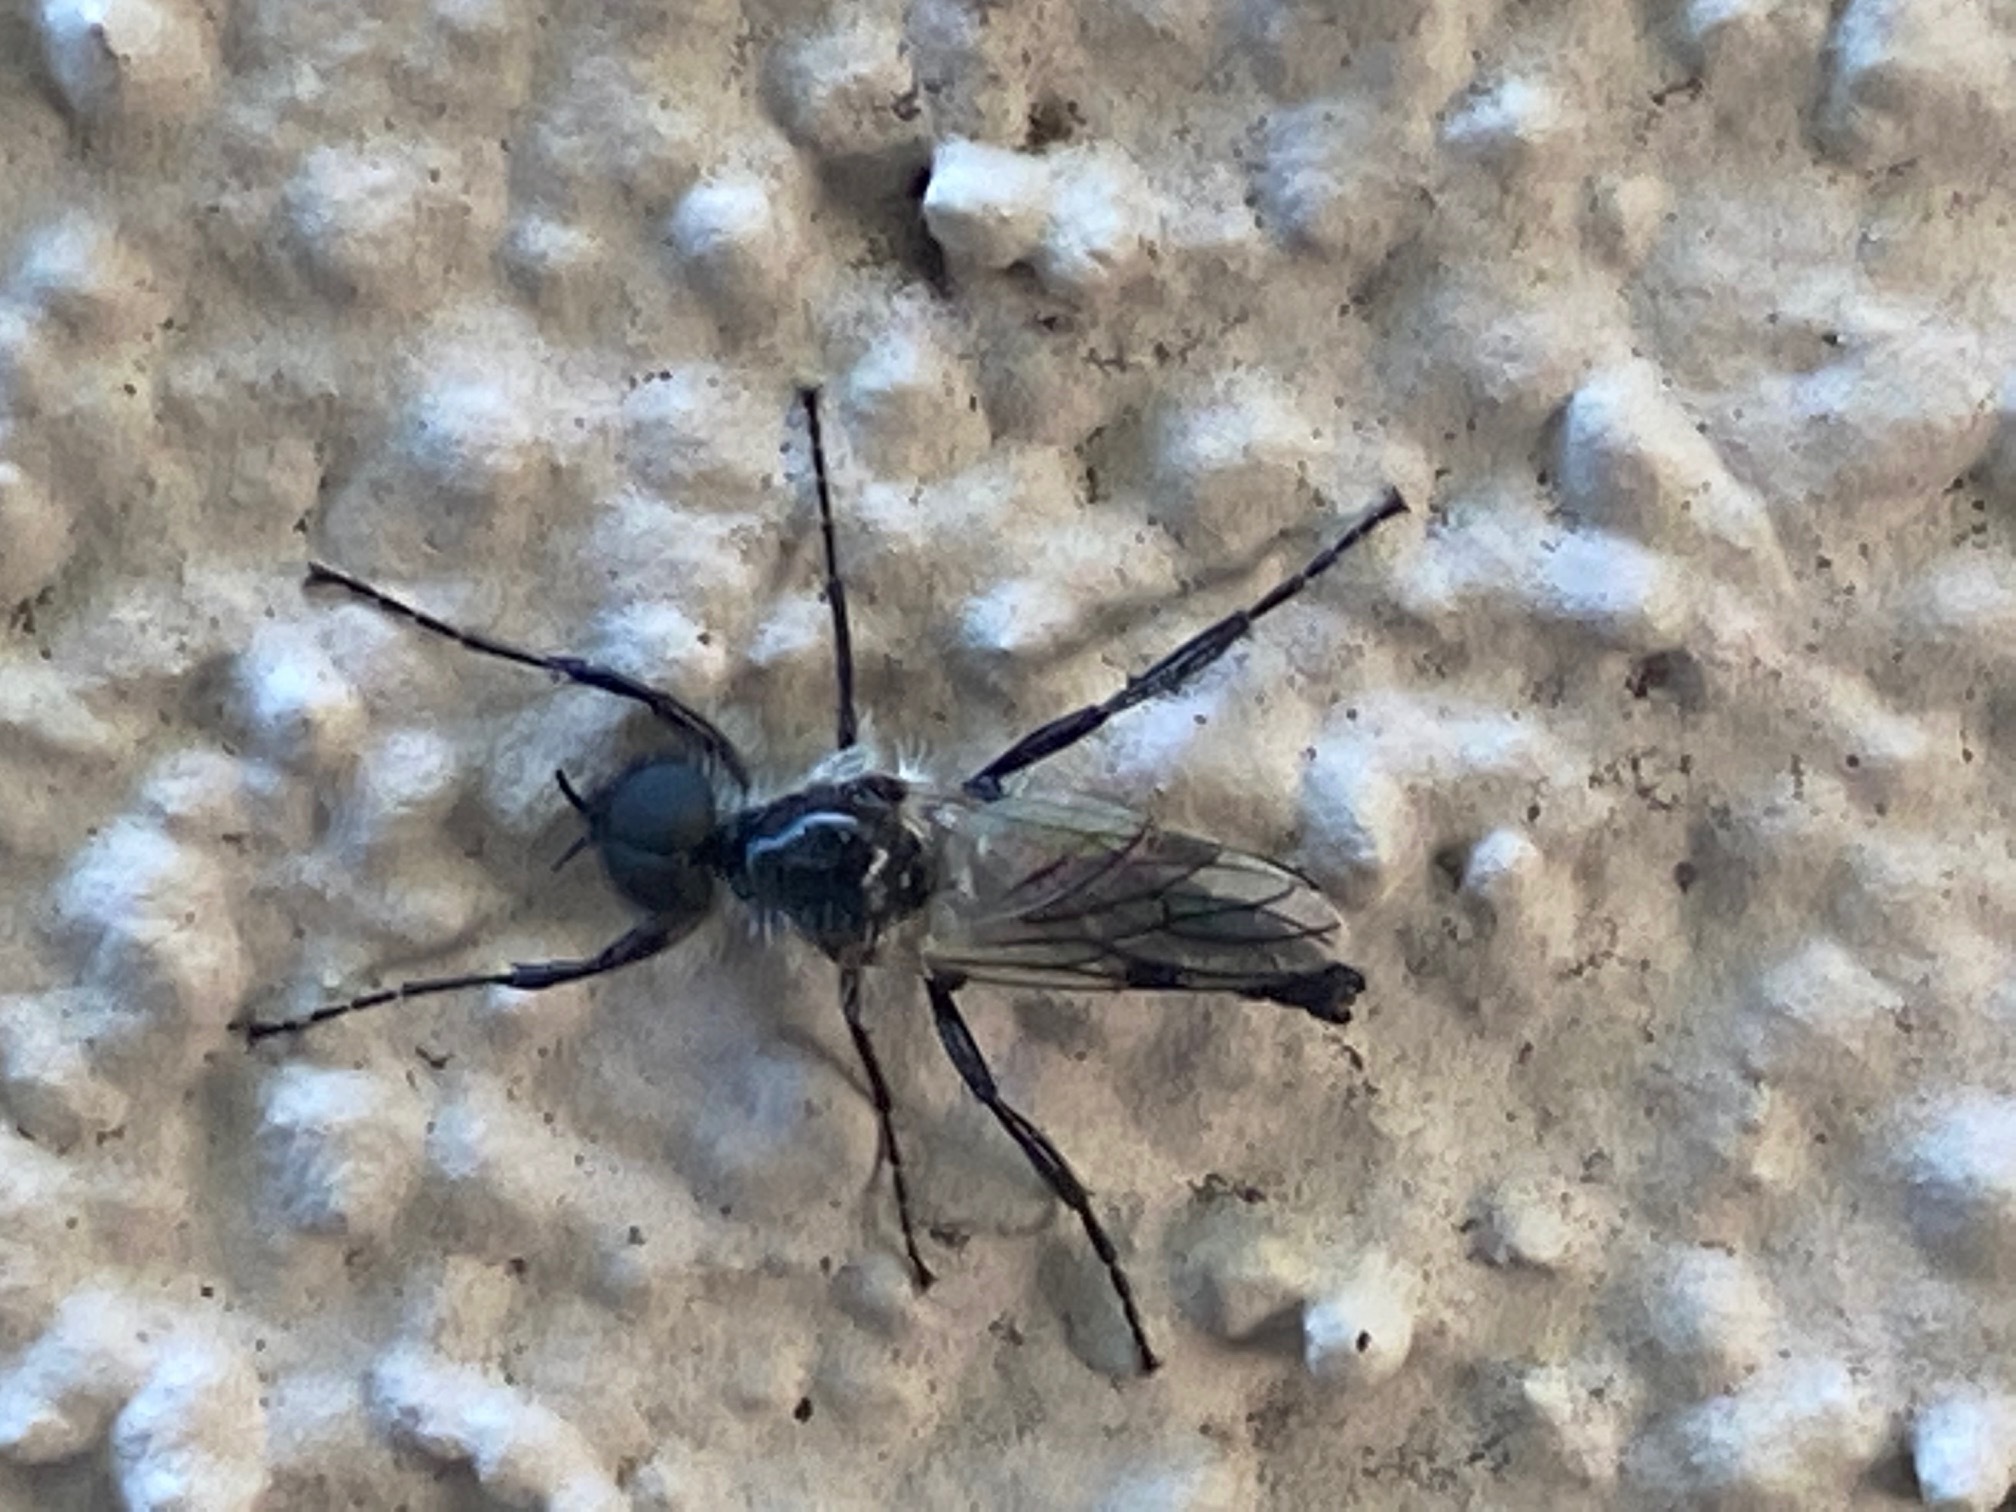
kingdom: Animalia
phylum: Arthropoda
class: Insecta
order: Diptera
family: Bibionidae
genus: Bibio
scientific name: Bibio albipennis
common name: White-winged march fly
